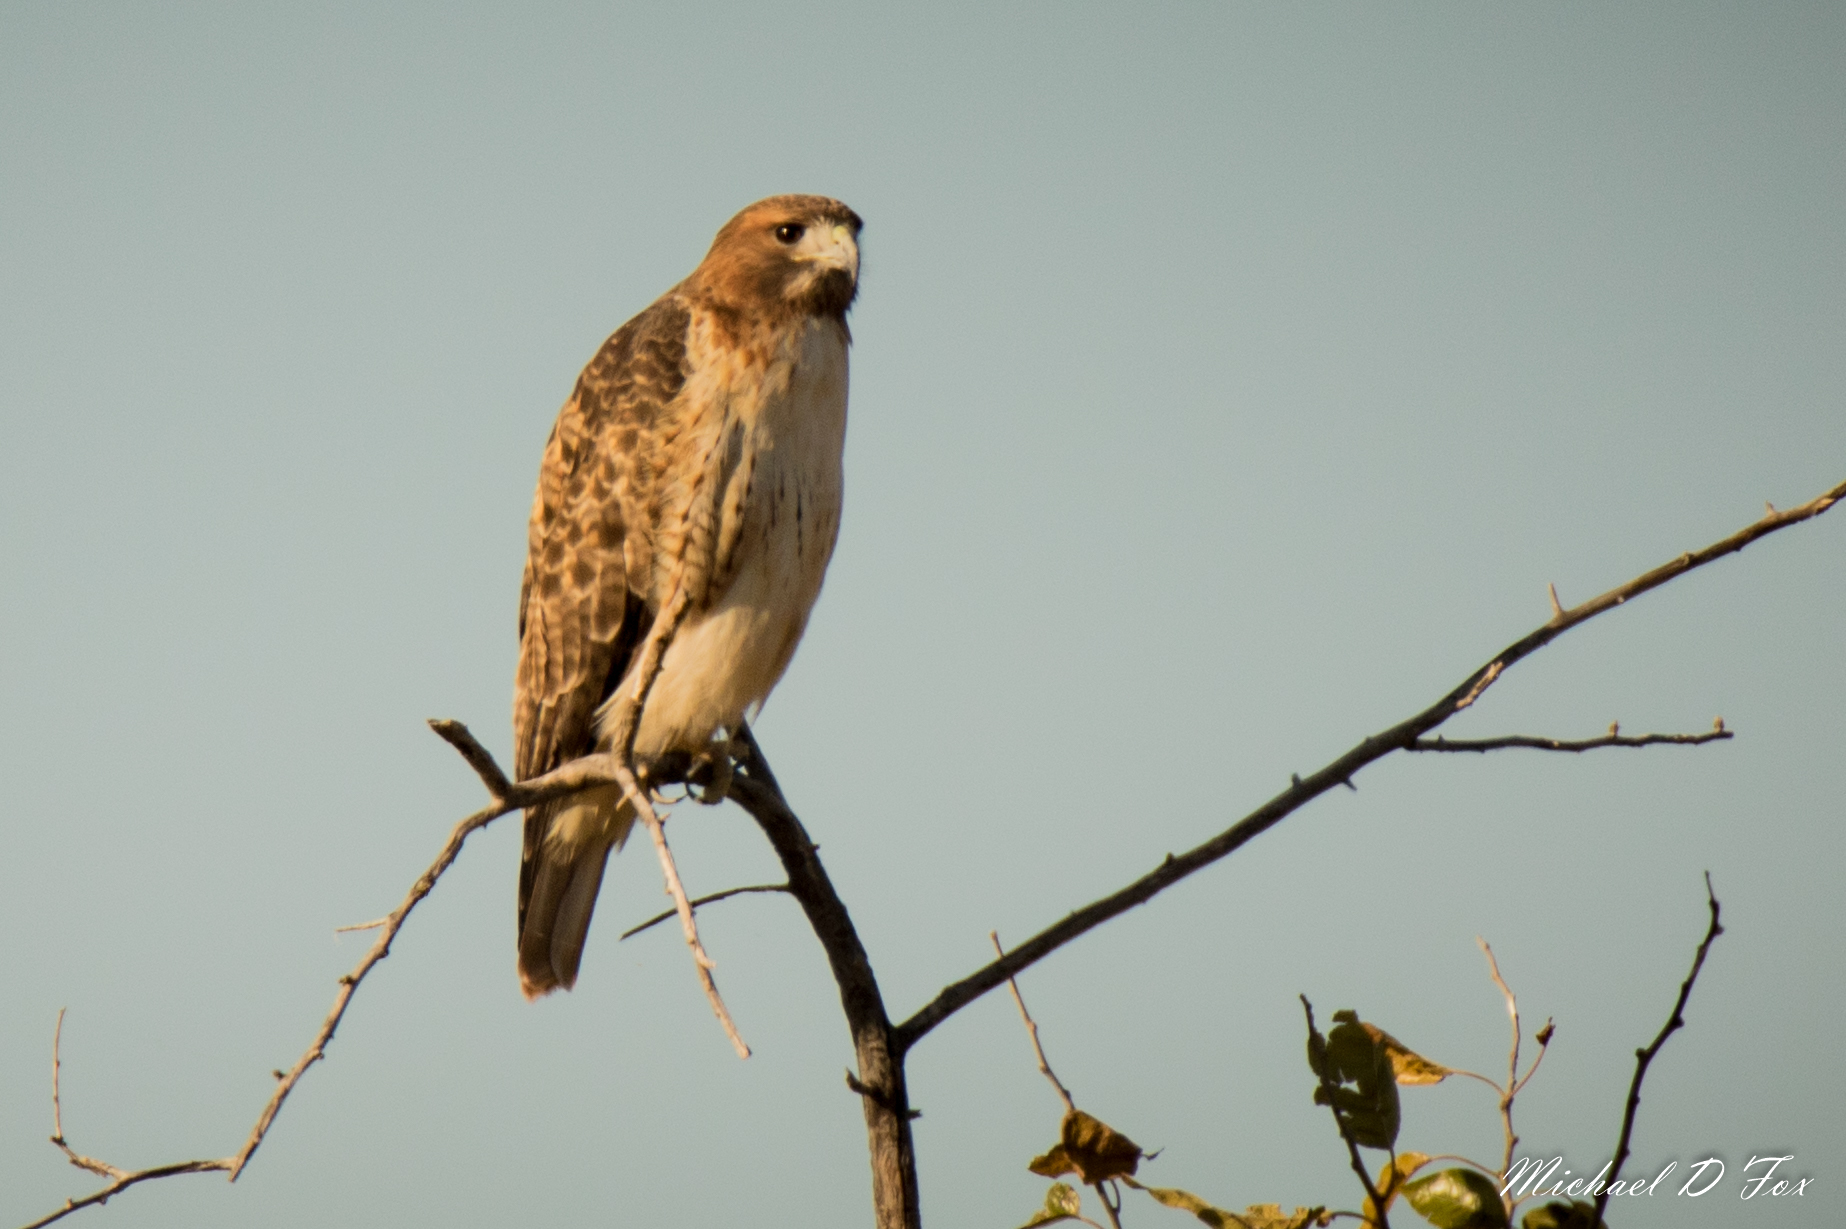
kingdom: Animalia
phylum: Chordata
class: Aves
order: Accipitriformes
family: Accipitridae
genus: Buteo
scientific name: Buteo jamaicensis
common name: Red-tailed hawk
